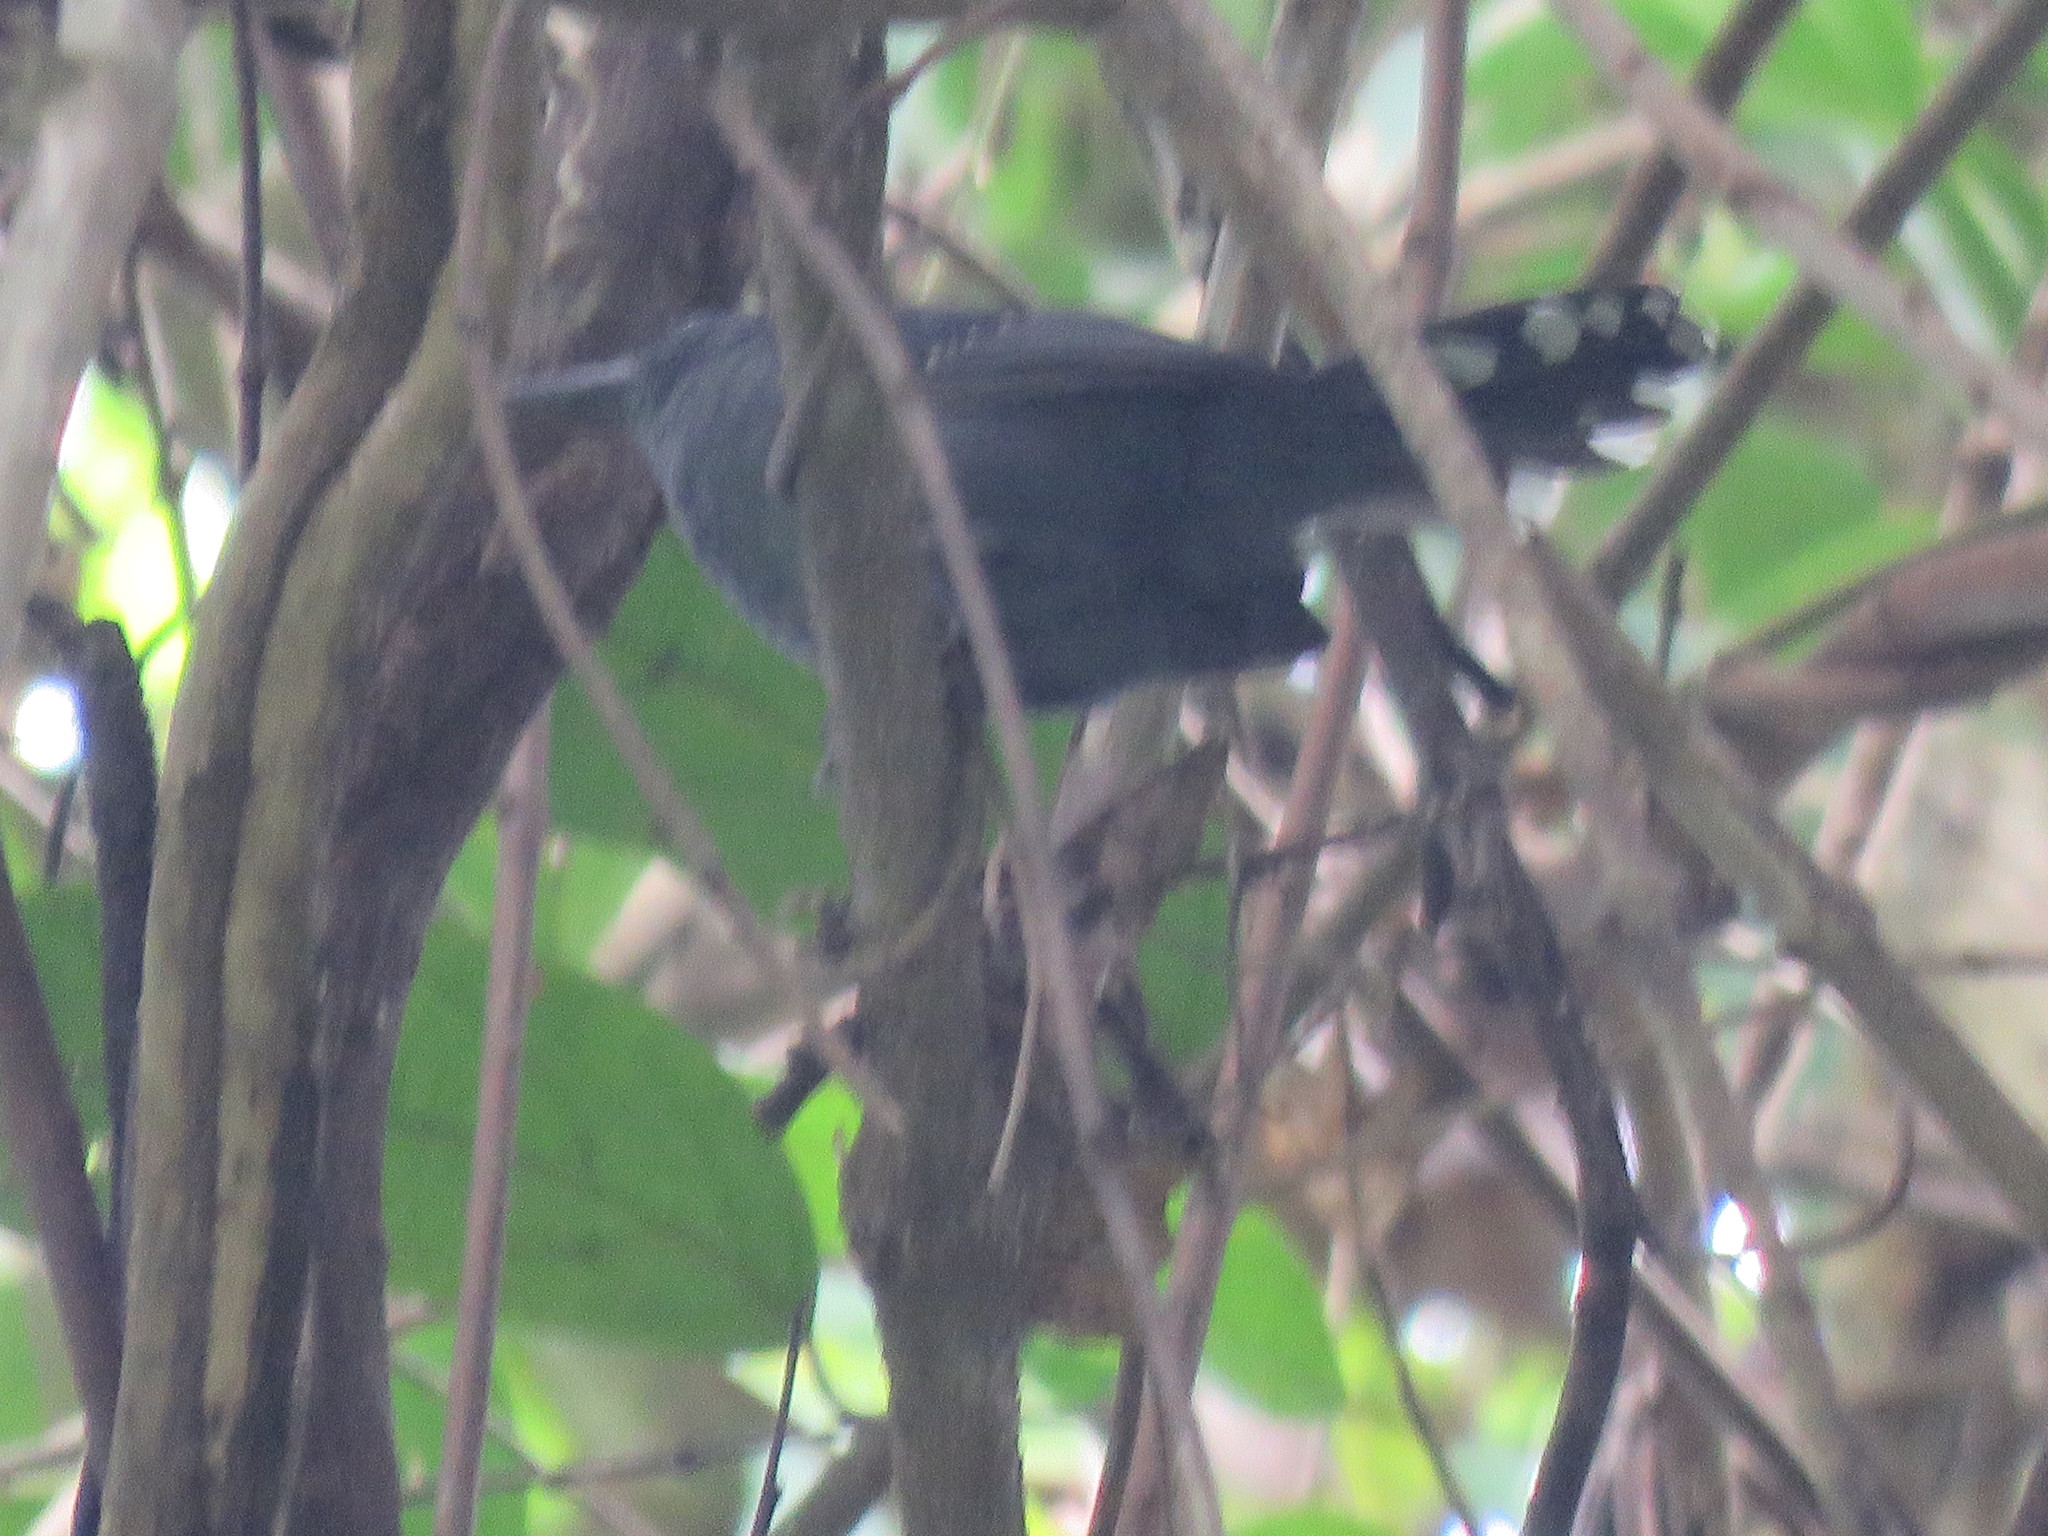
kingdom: Animalia
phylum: Chordata
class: Aves
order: Passeriformes
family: Thamnophilidae
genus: Cercomacra
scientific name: Cercomacra cinerascens
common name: Grey antbird
